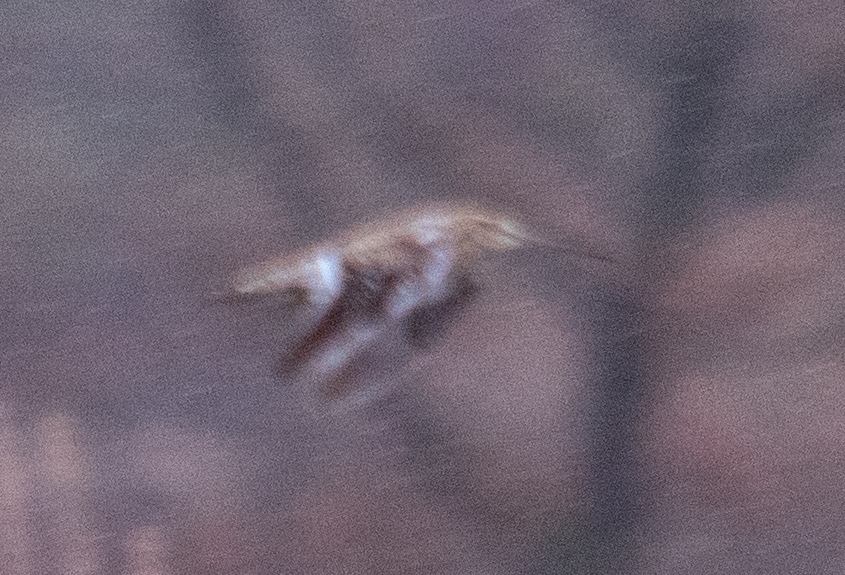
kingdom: Animalia
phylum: Chordata
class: Aves
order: Charadriiformes
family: Scolopacidae
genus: Gallinago
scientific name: Gallinago gallinago
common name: Common snipe
